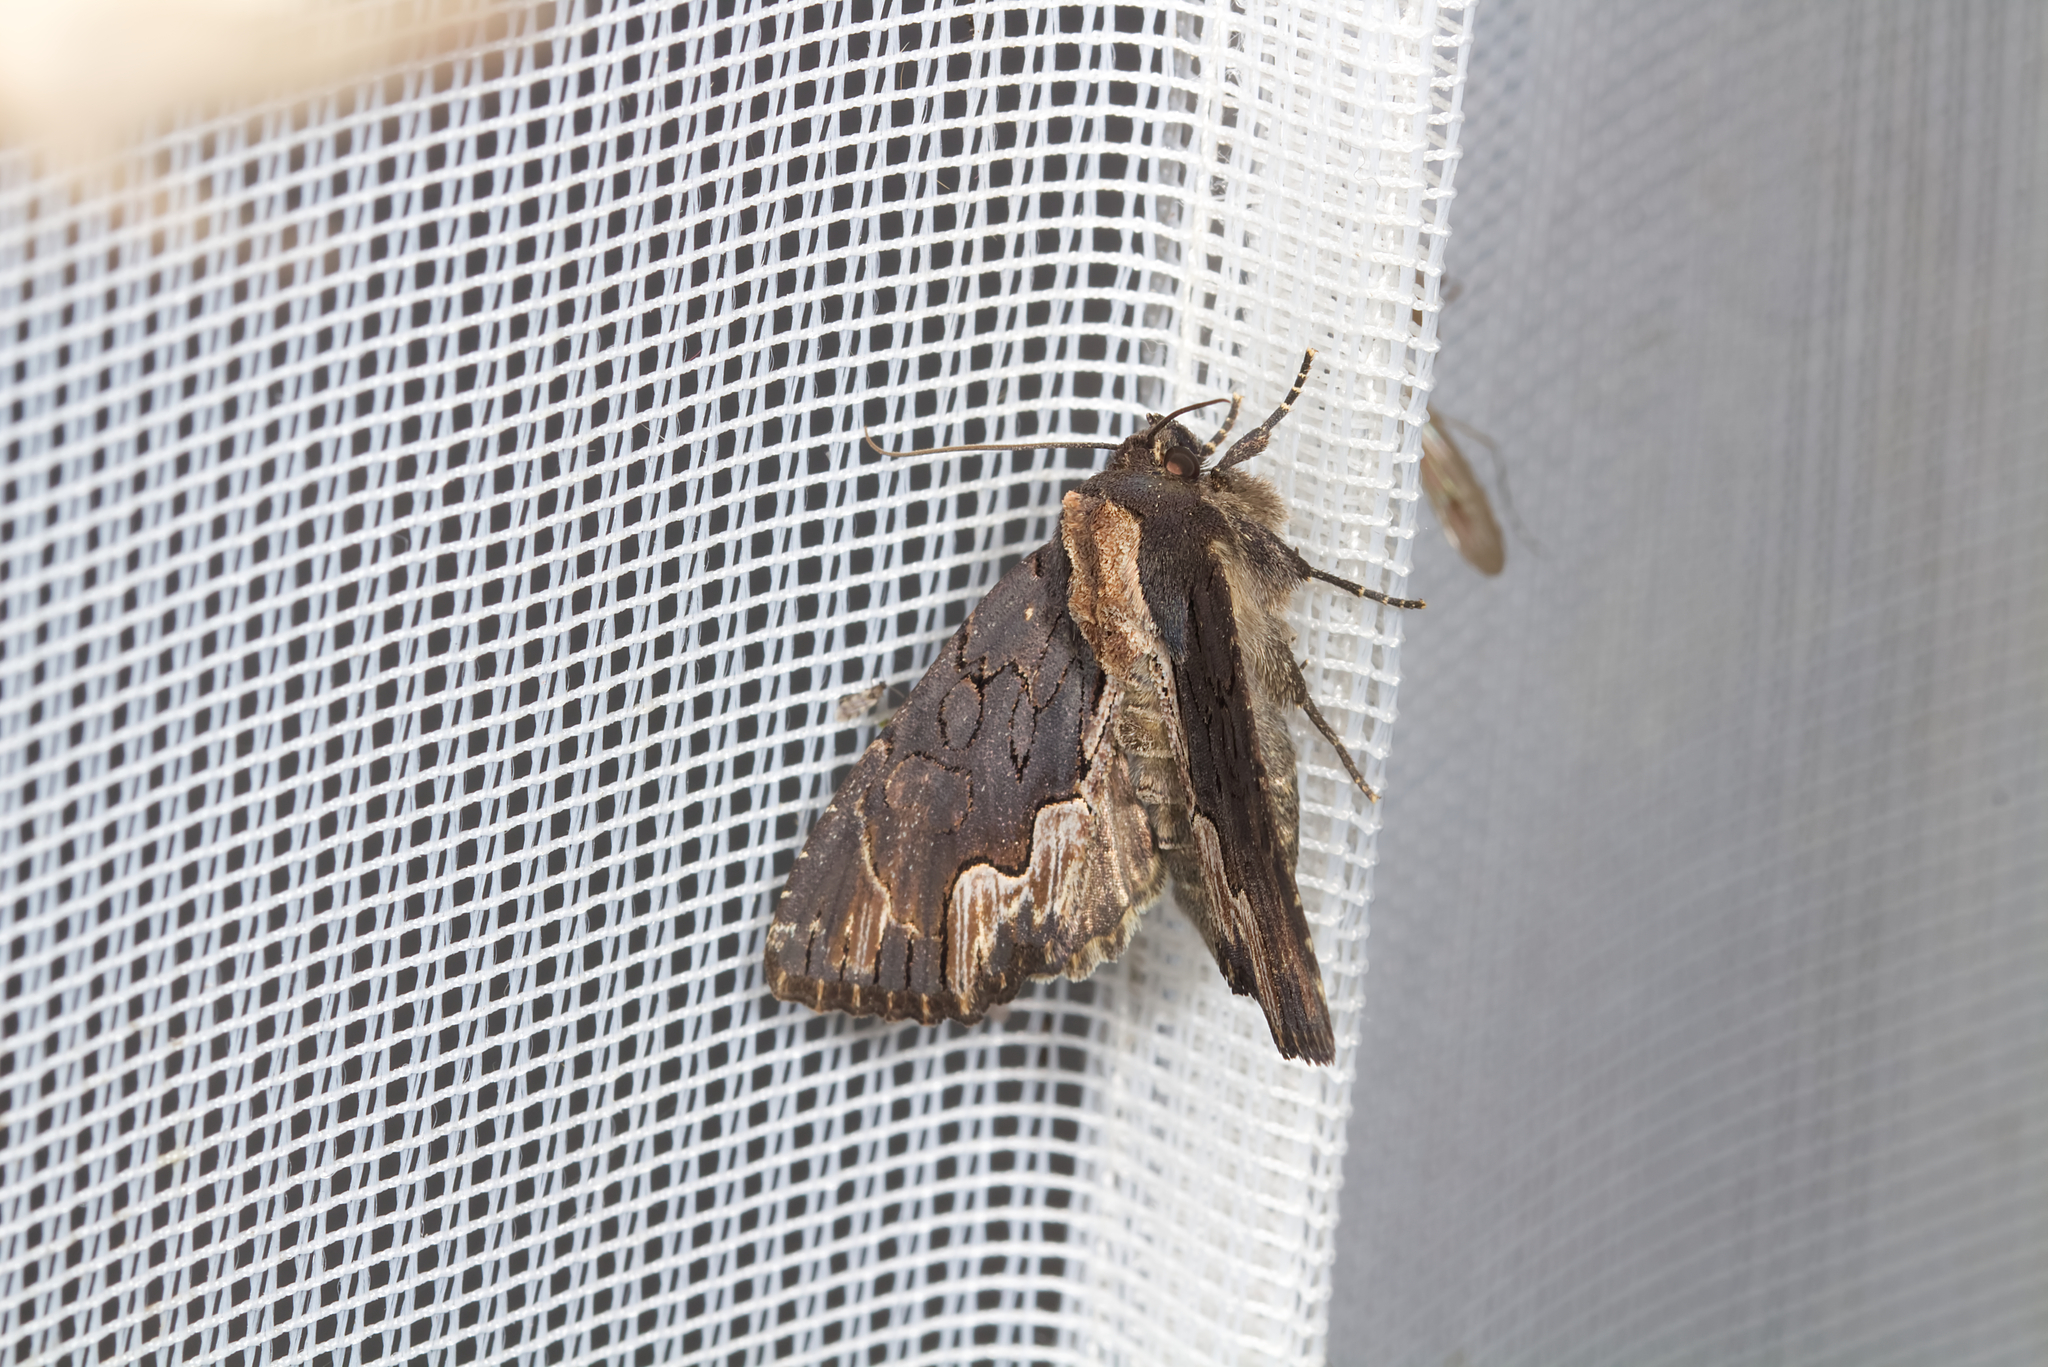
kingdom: Animalia
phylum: Arthropoda
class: Insecta
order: Lepidoptera
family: Noctuidae
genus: Dypterygia
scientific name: Dypterygia scabriuscula
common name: Bird's wing
